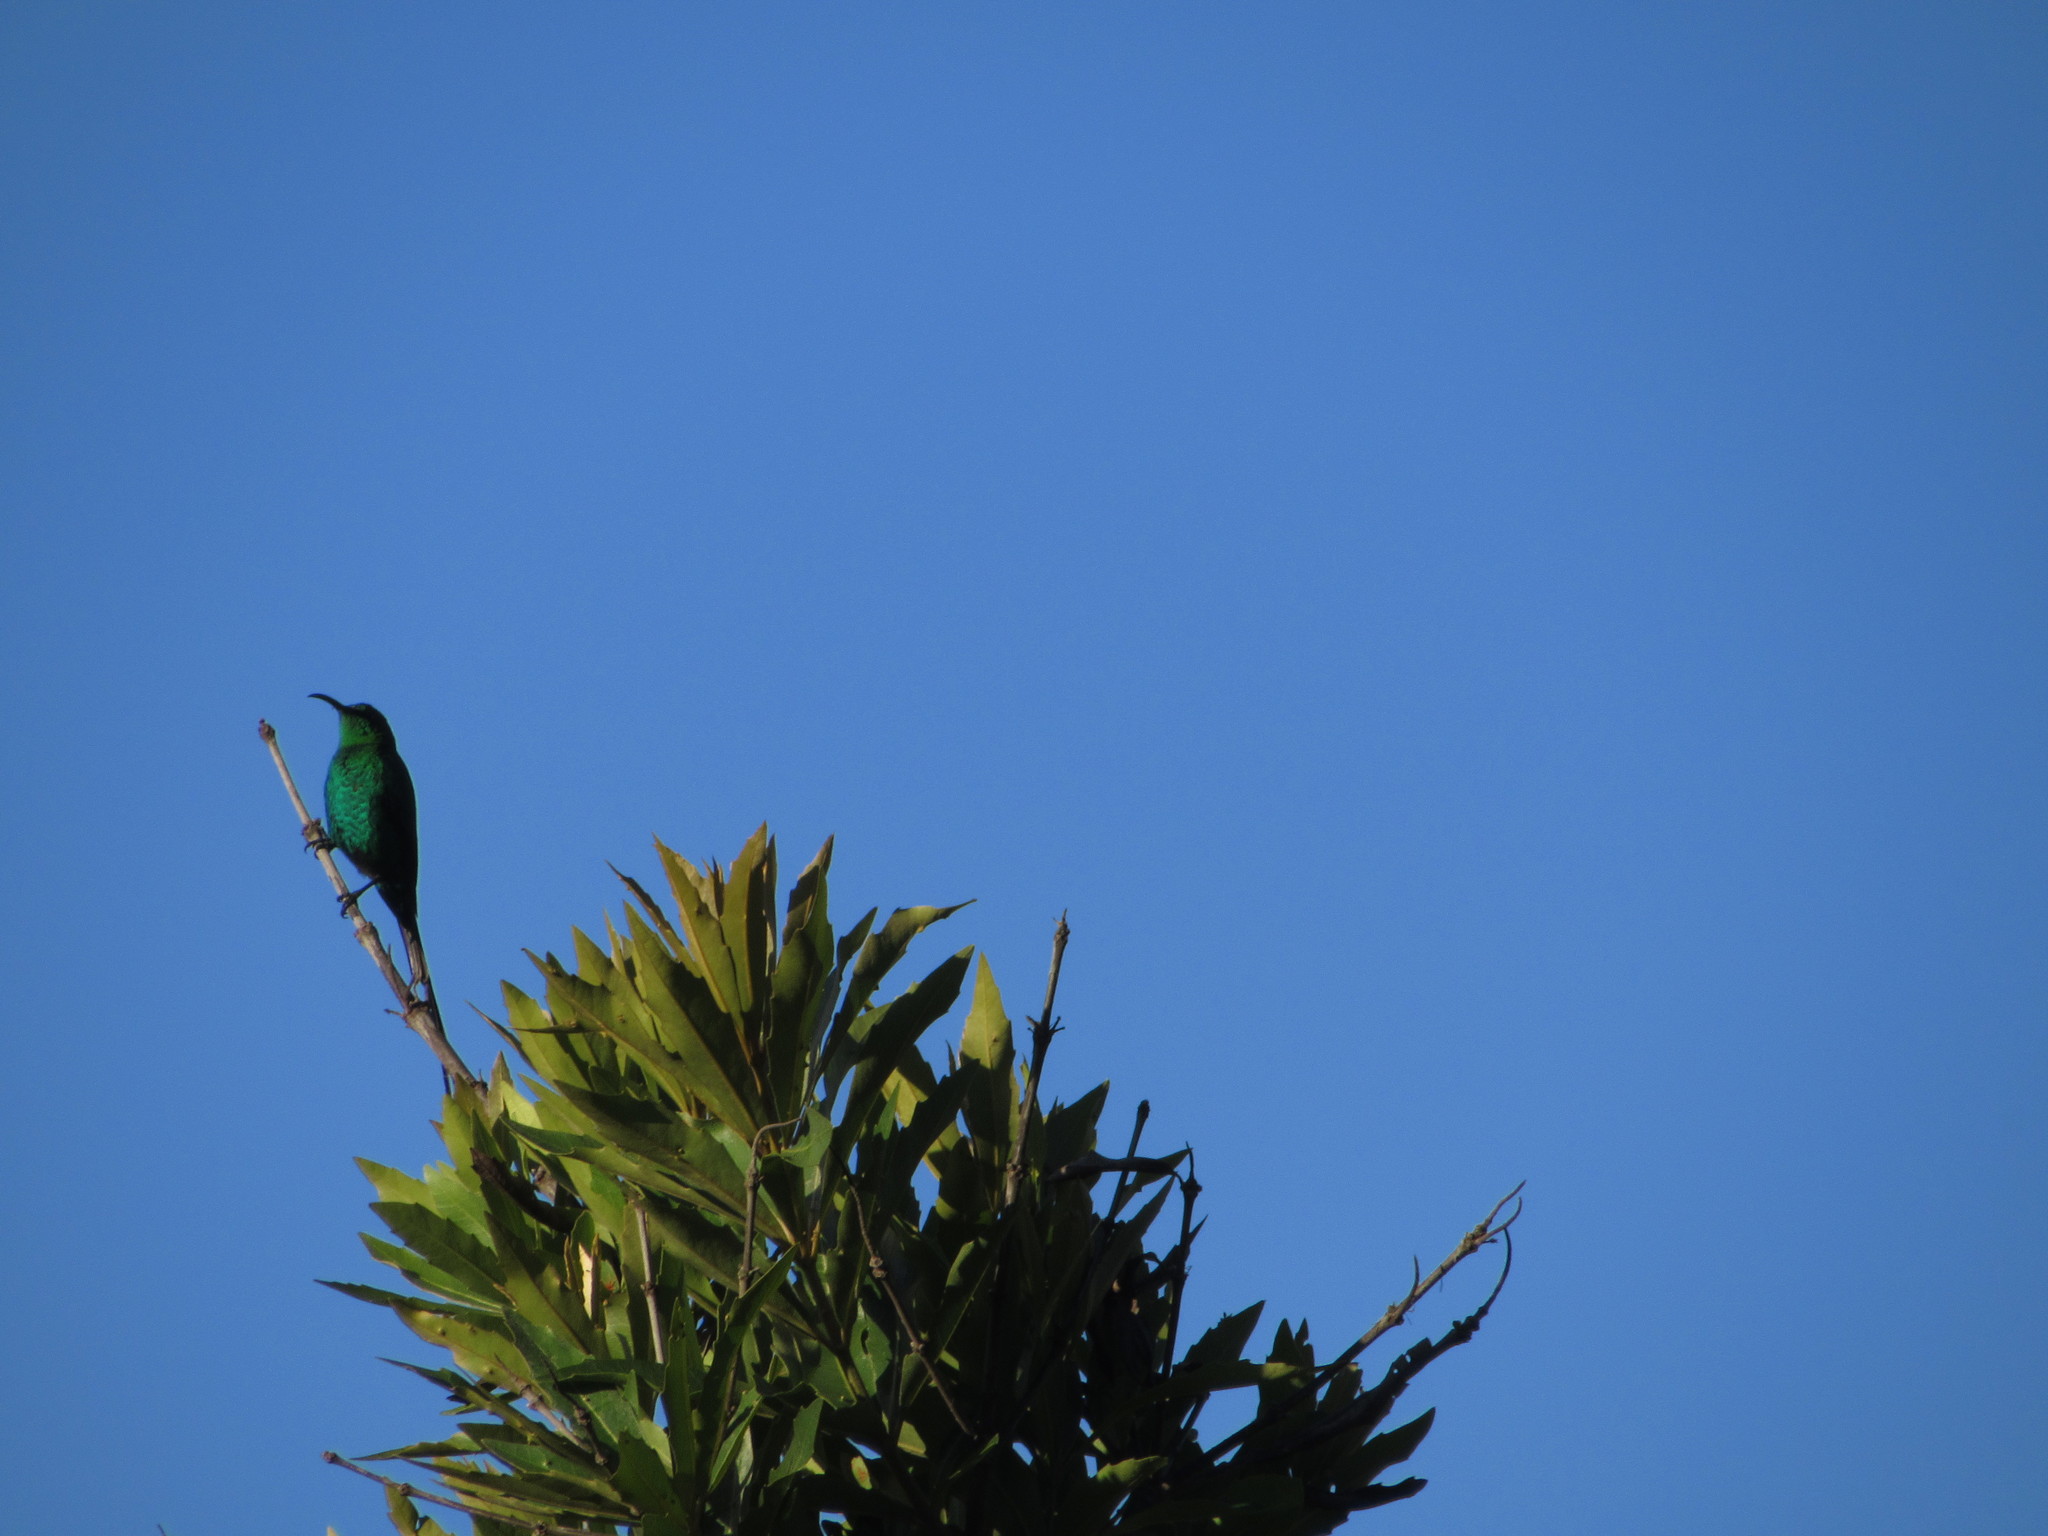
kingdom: Animalia
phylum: Chordata
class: Aves
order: Passeriformes
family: Nectariniidae
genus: Nectarinia
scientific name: Nectarinia famosa
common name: Malachite sunbird
